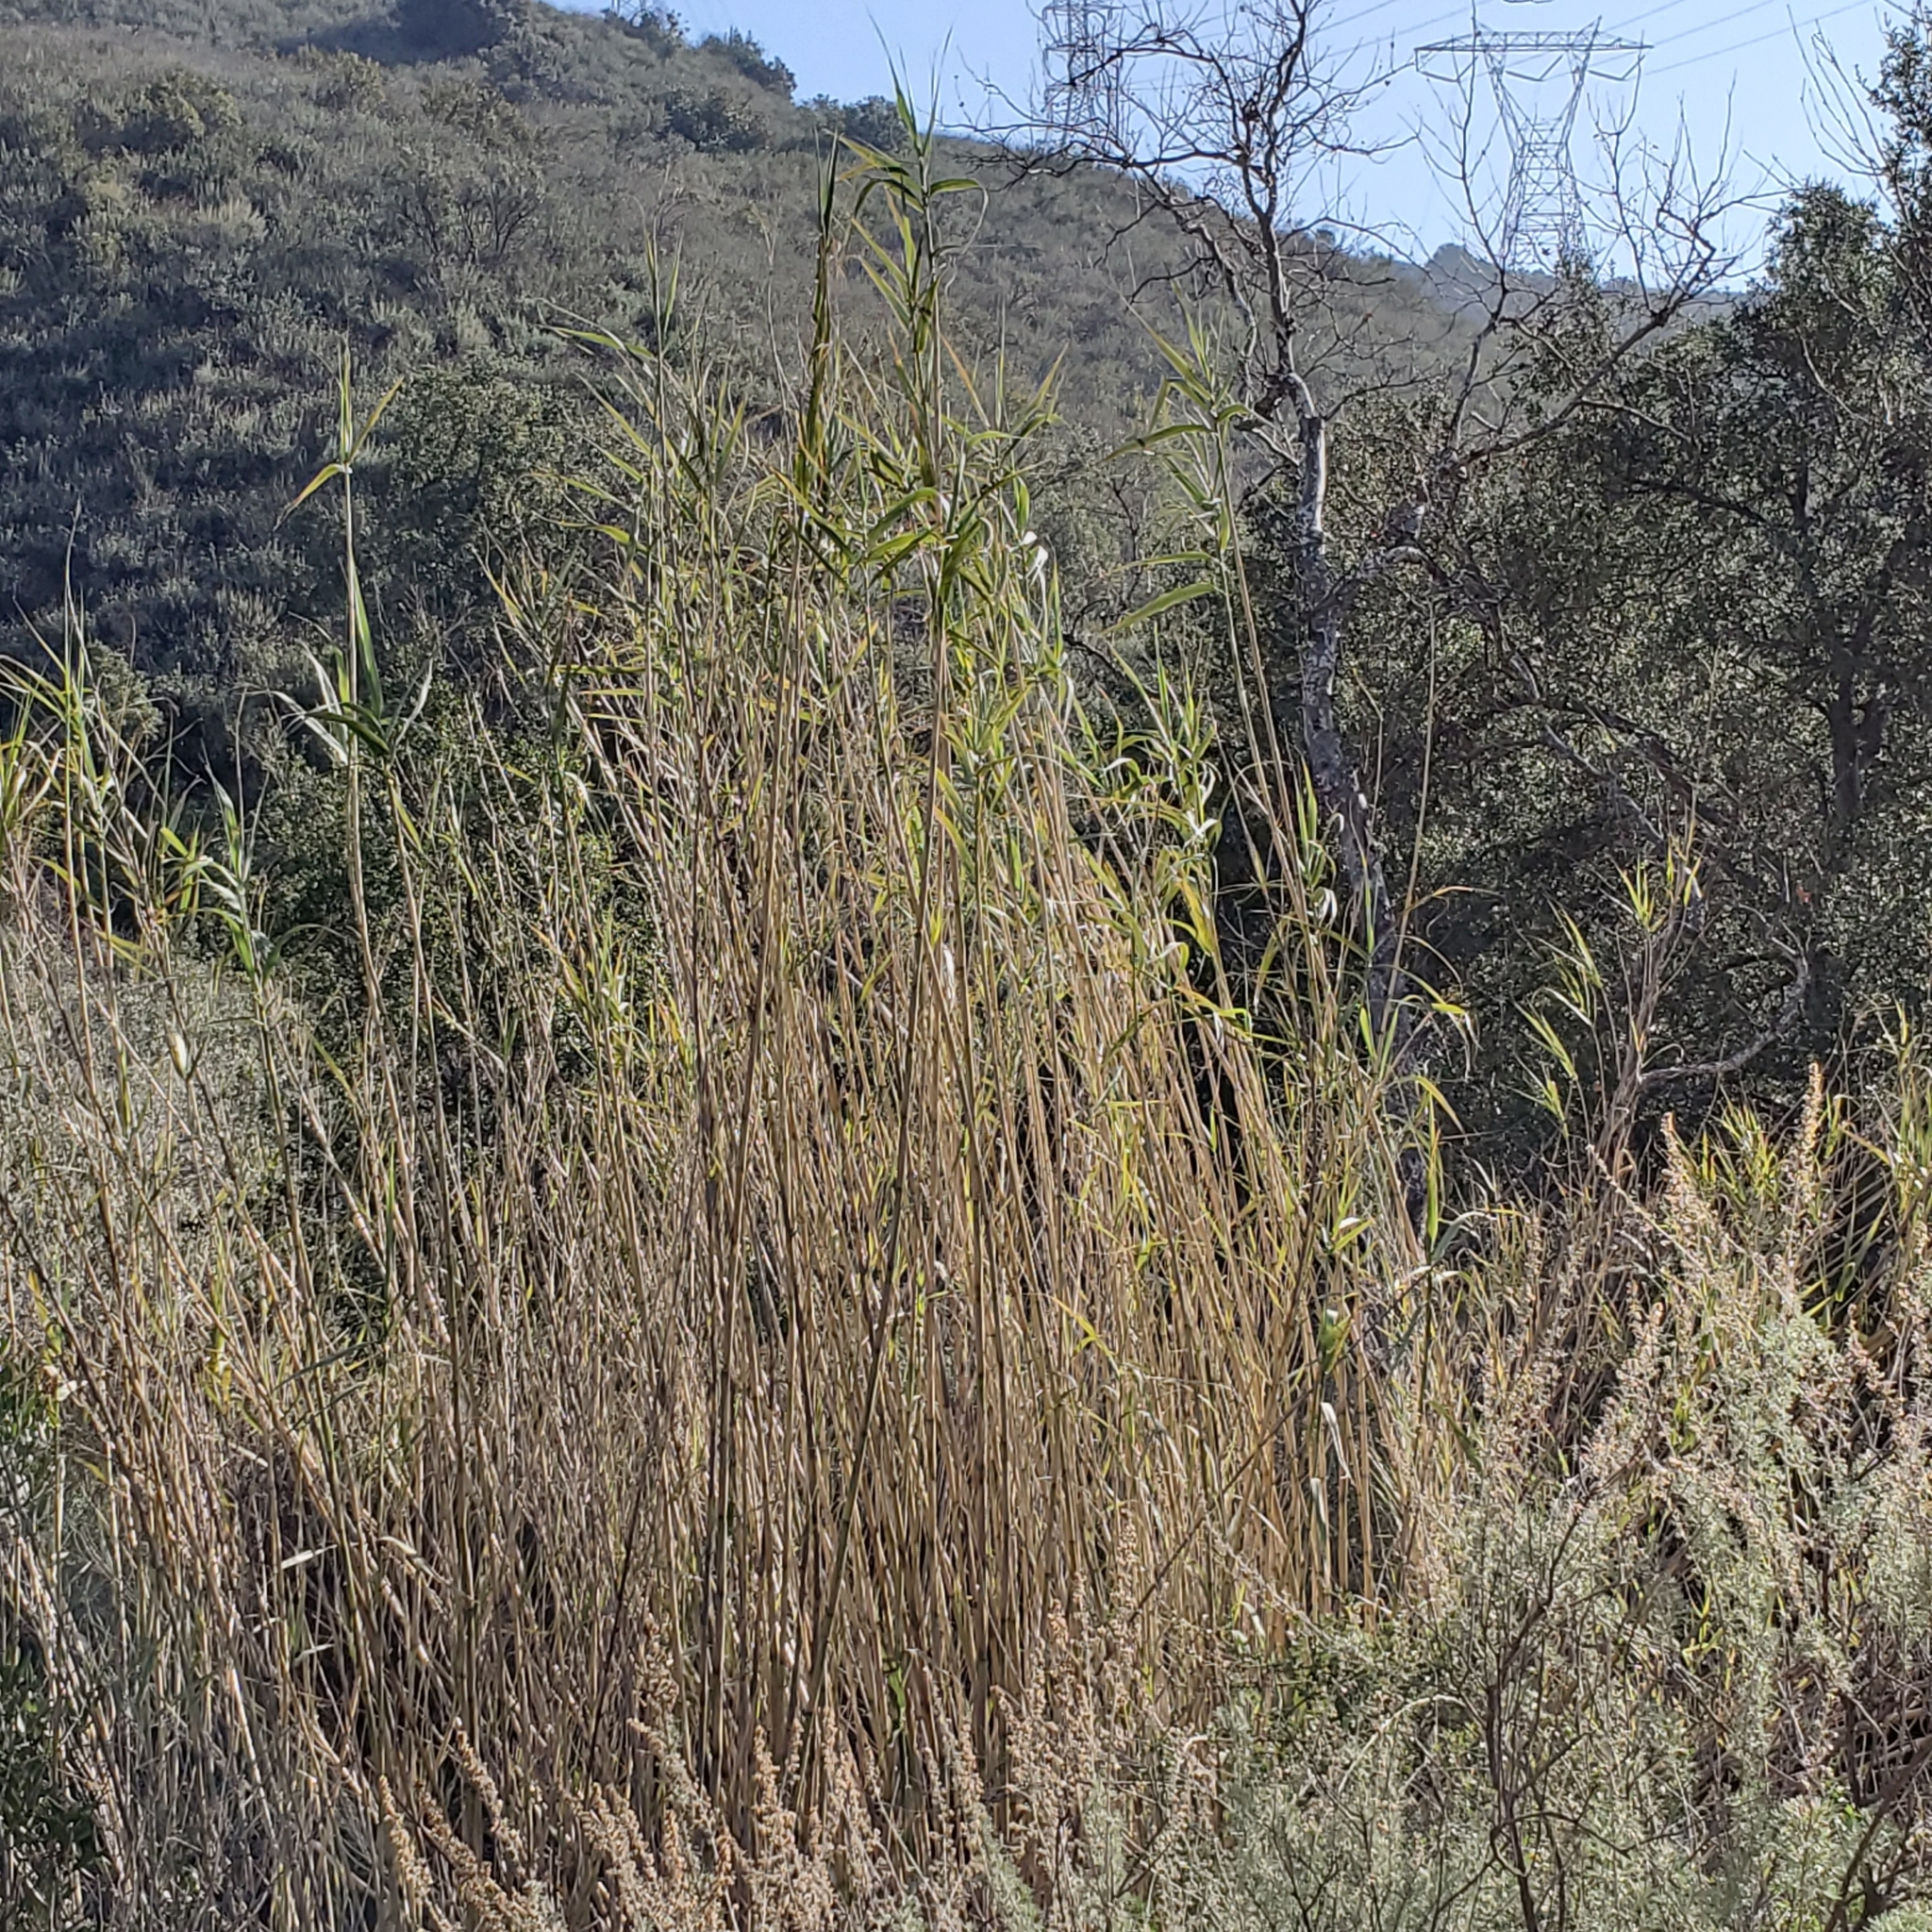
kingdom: Plantae
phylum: Tracheophyta
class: Liliopsida
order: Poales
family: Poaceae
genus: Arundo
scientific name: Arundo donax
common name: Giant reed
